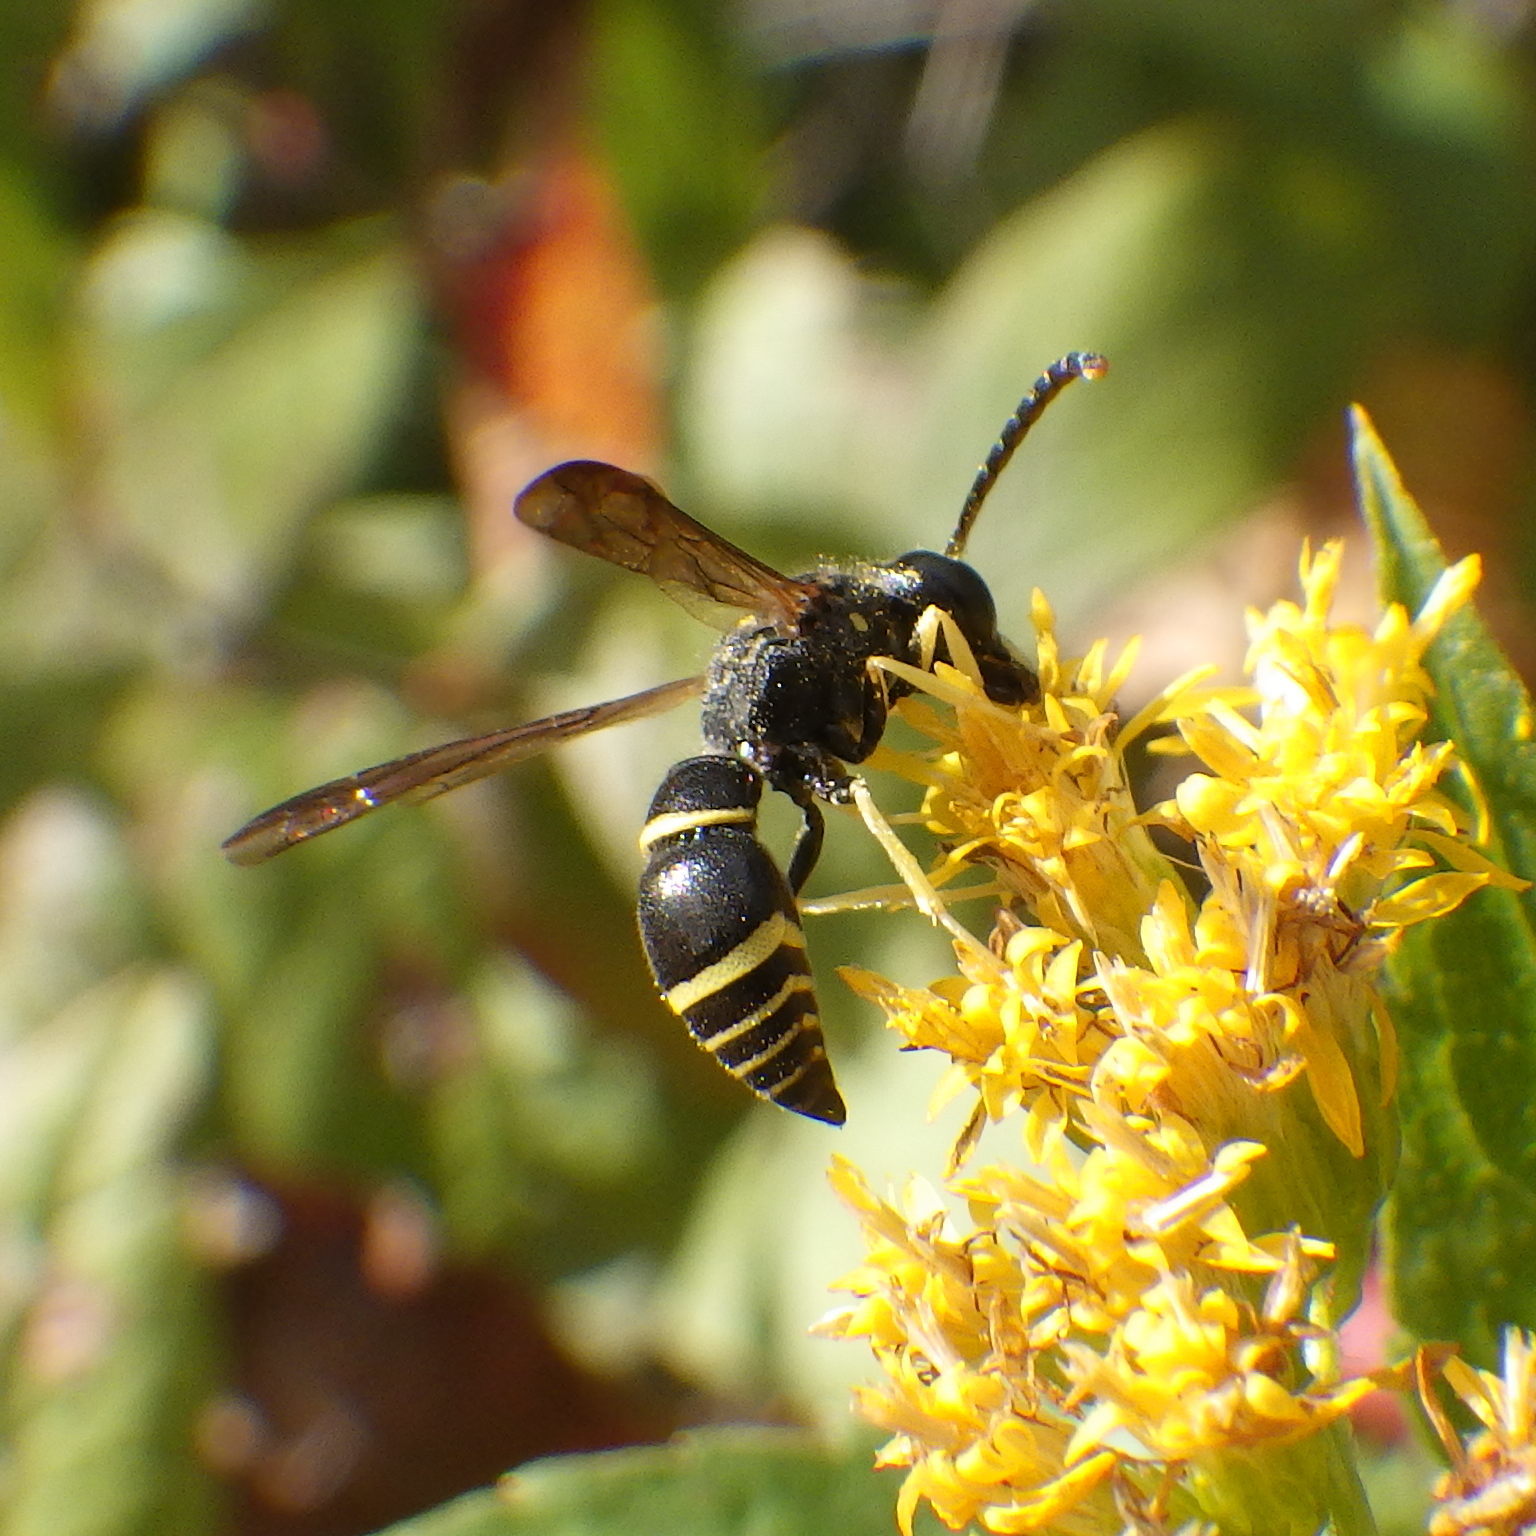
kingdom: Animalia
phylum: Arthropoda
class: Insecta
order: Hymenoptera
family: Vespidae
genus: Ancistrocerus
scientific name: Ancistrocerus adiabatus
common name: Bramble mason wasp
